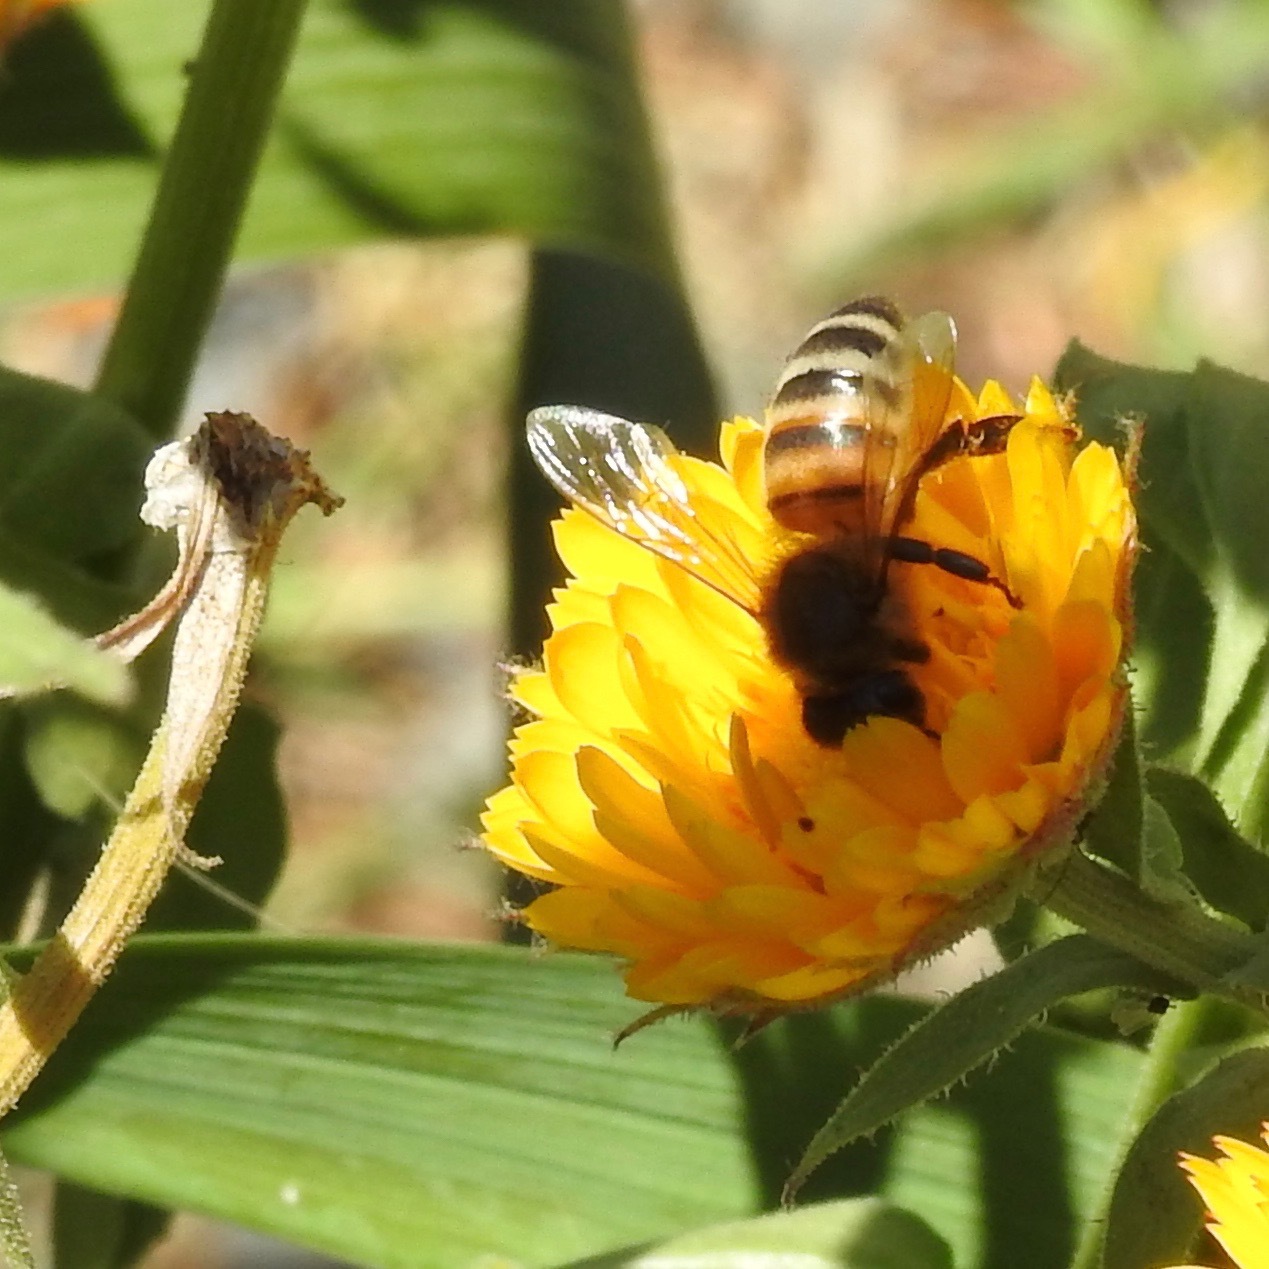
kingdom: Animalia
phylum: Arthropoda
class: Insecta
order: Hymenoptera
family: Apidae
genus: Apis
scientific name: Apis mellifera
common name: Honey bee
